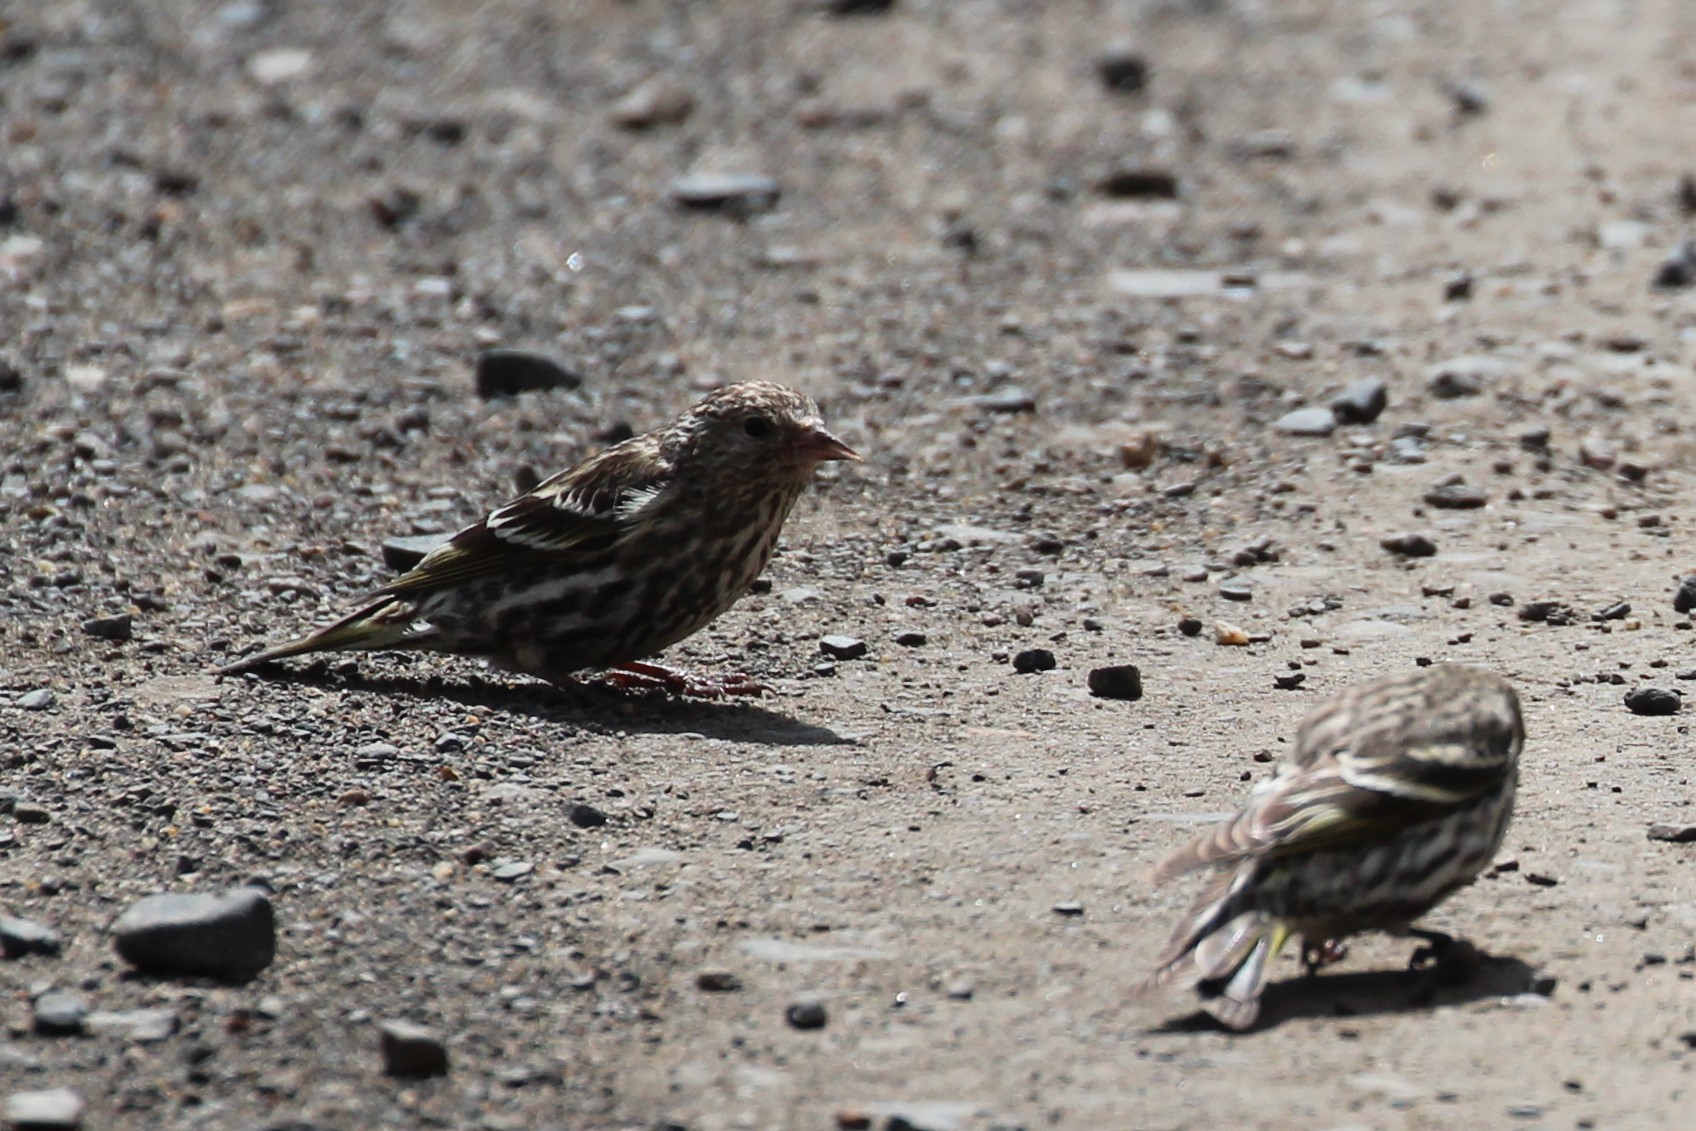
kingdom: Animalia
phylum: Chordata
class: Aves
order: Passeriformes
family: Fringillidae
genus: Spinus
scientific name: Spinus pinus
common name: Pine siskin
